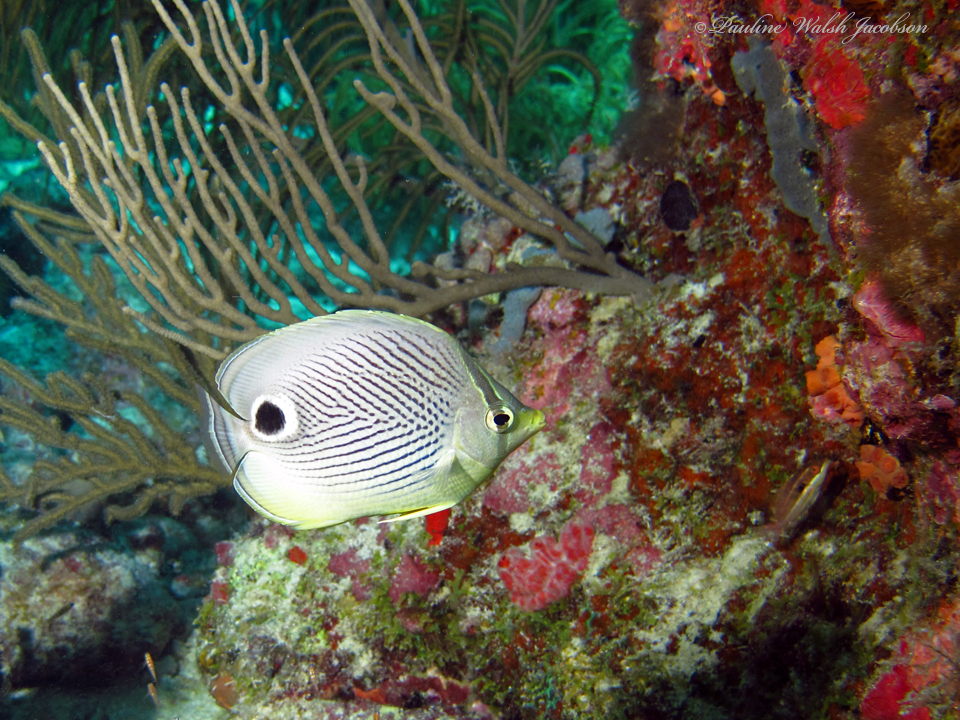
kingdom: Animalia
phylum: Chordata
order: Perciformes
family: Chaetodontidae
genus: Chaetodon
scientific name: Chaetodon capistratus
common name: Kete
